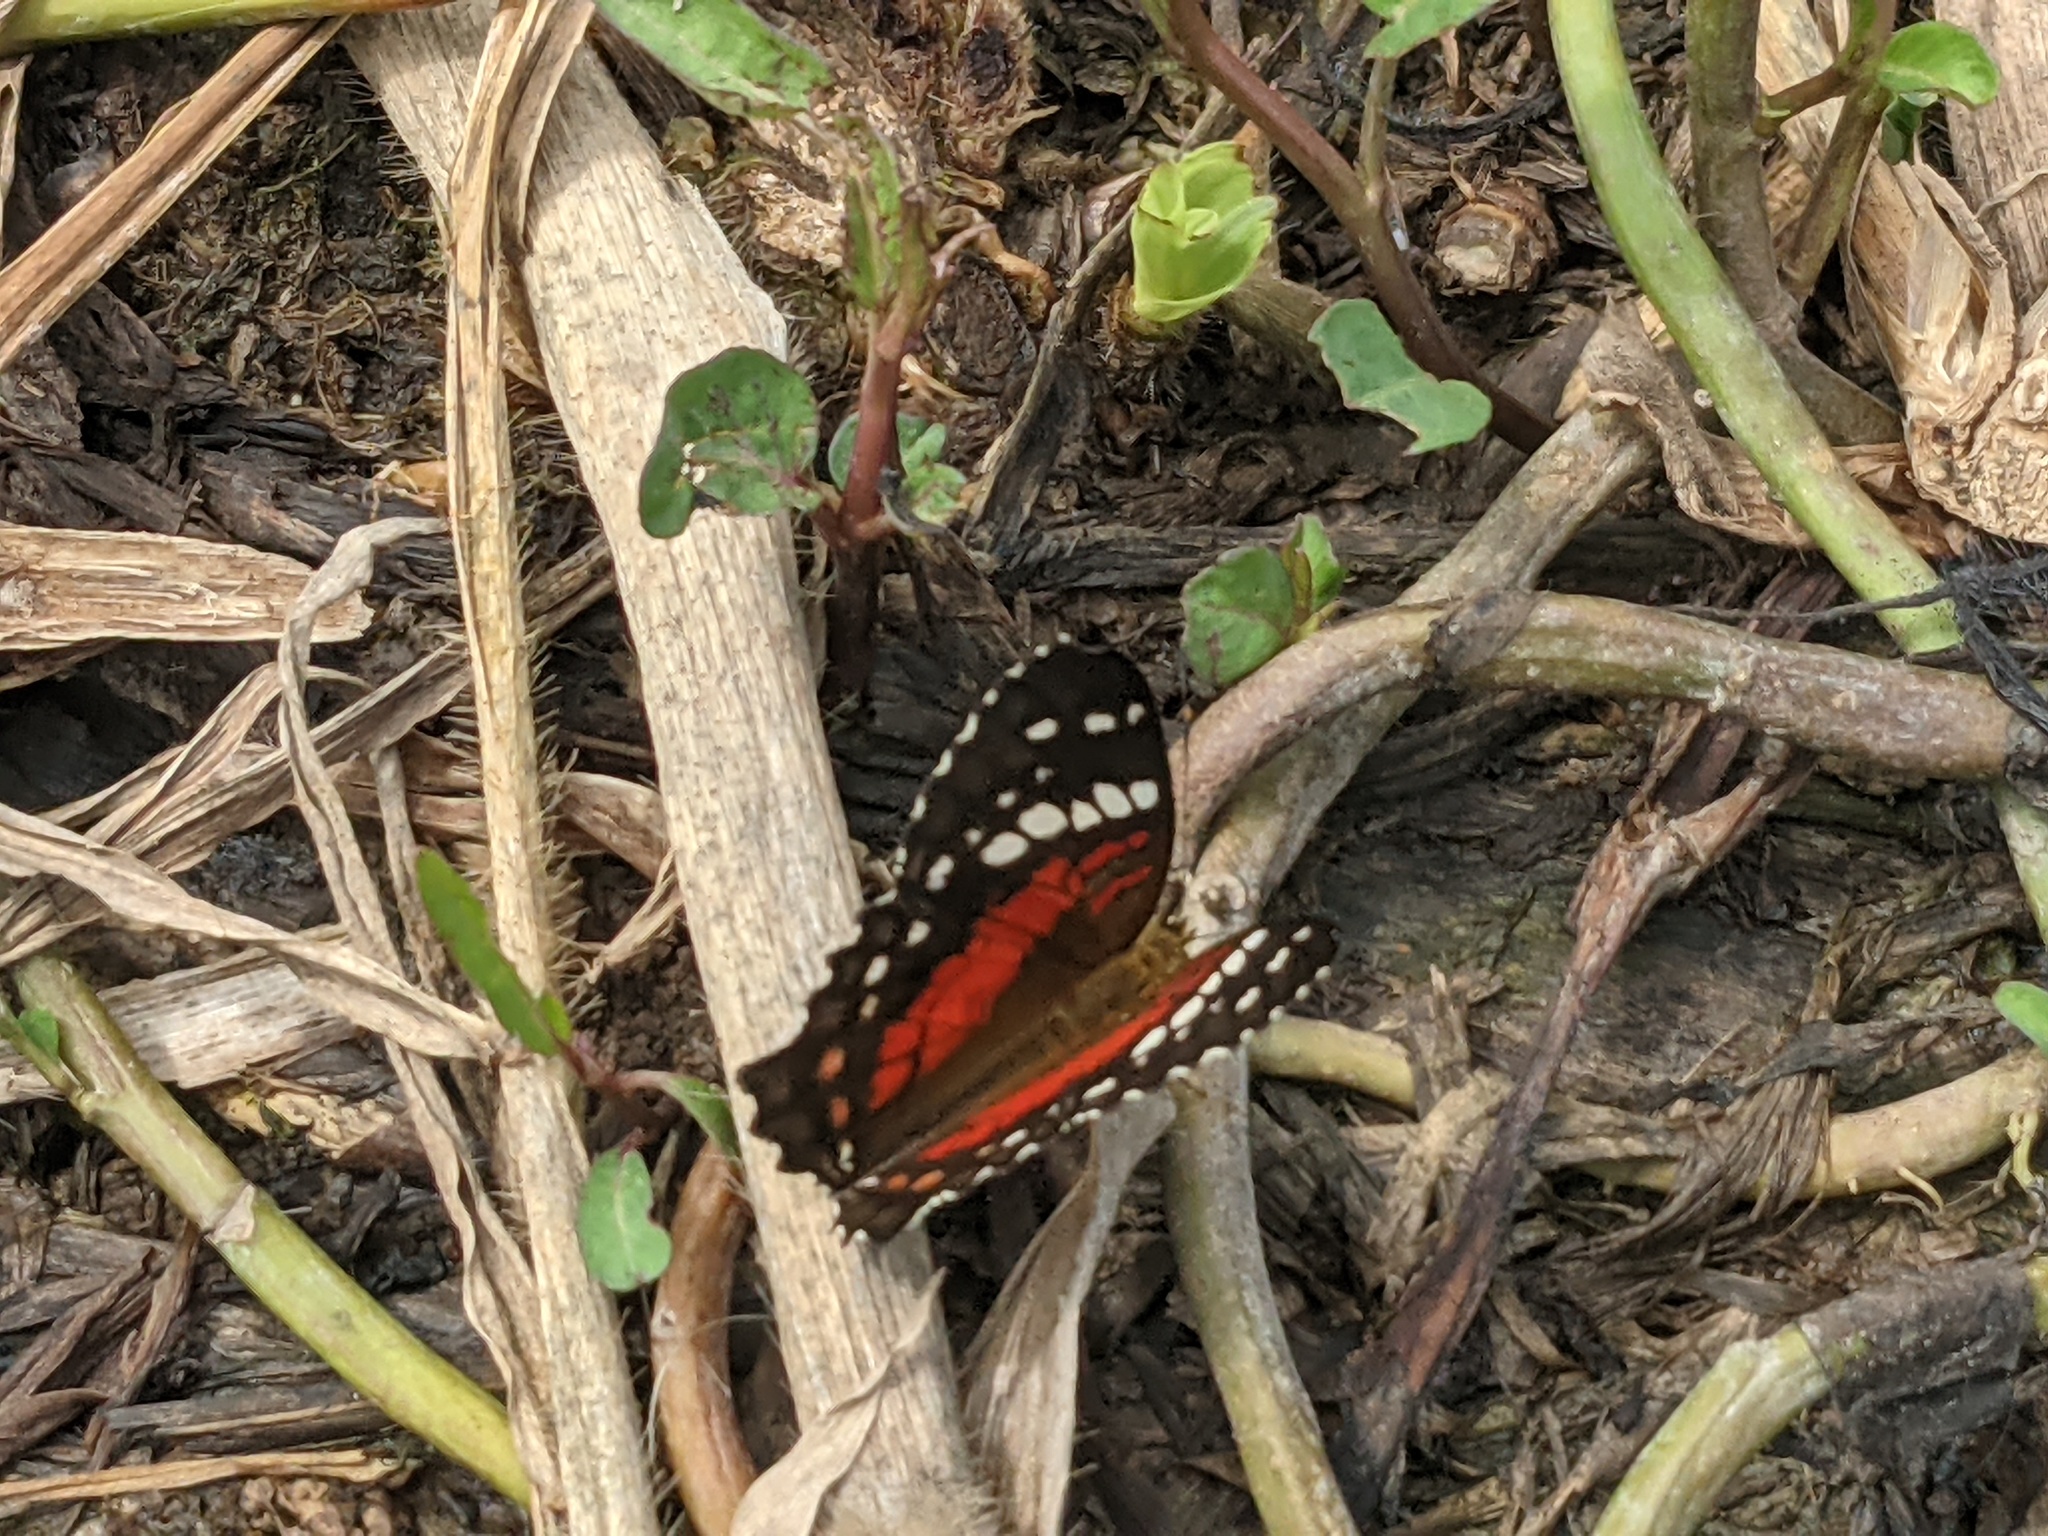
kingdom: Animalia
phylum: Arthropoda
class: Insecta
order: Lepidoptera
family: Nymphalidae
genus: Anartia
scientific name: Anartia amathea
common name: Red peacock
